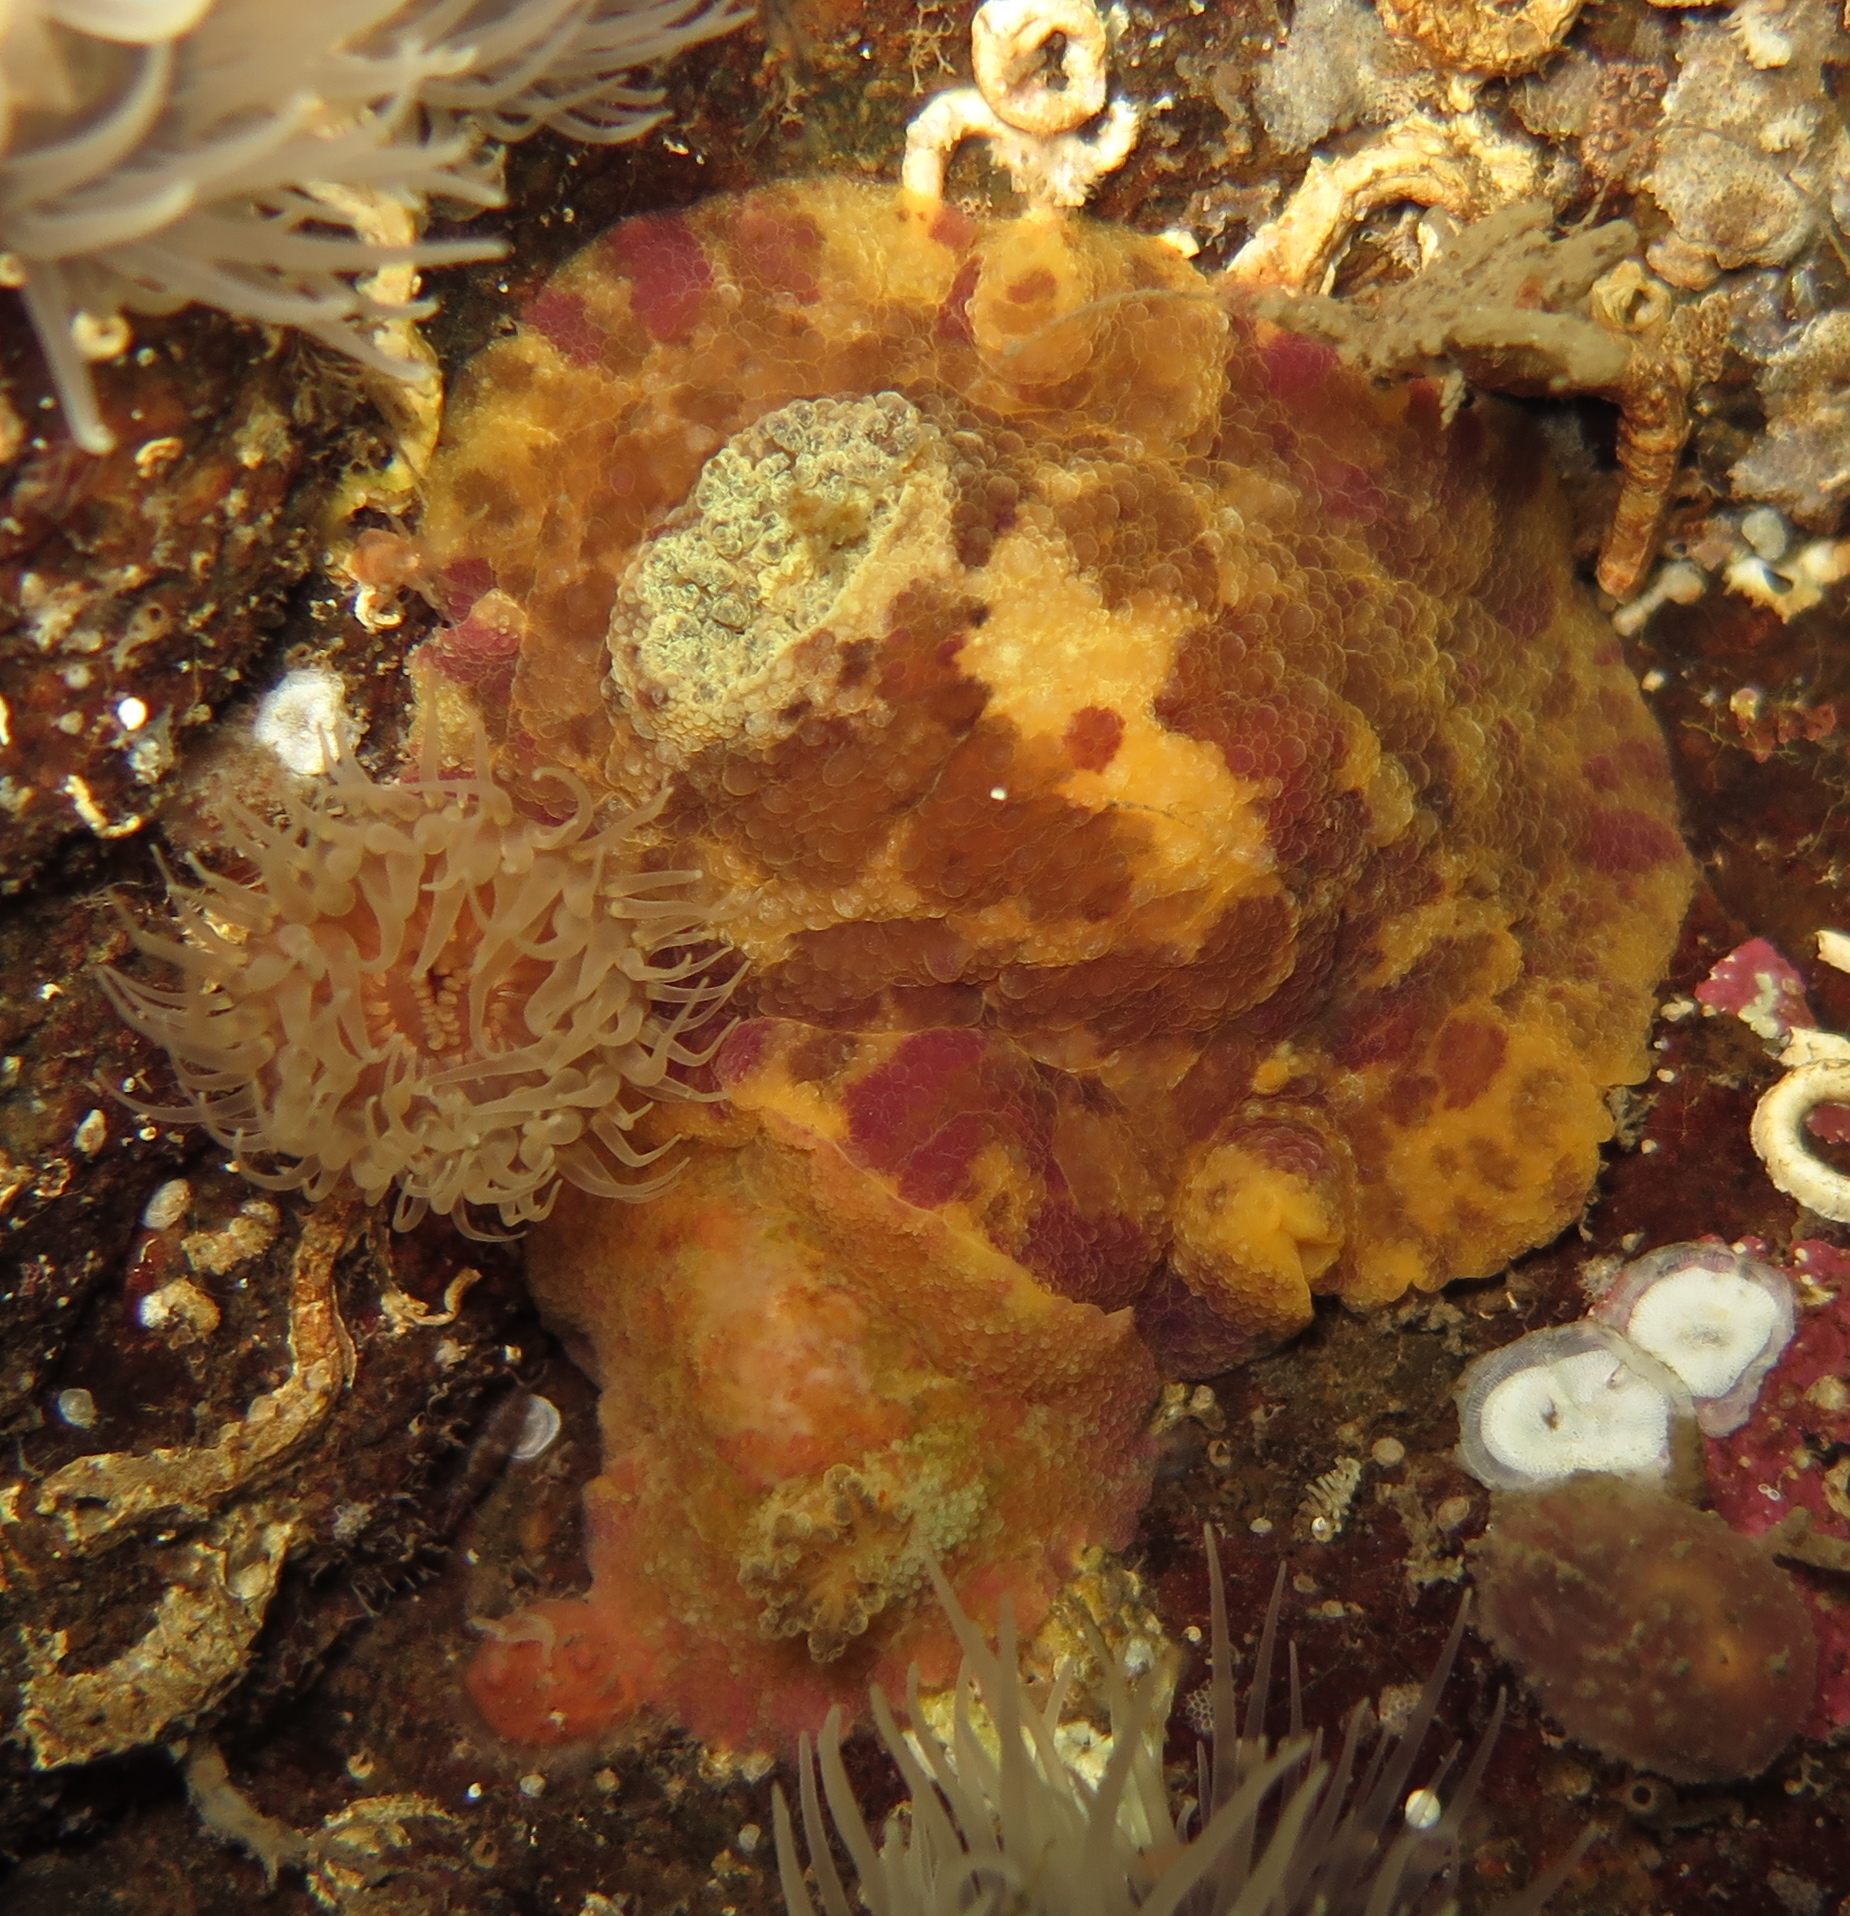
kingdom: Animalia
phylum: Mollusca
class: Gastropoda
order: Nudibranchia
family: Dorididae
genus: Doris
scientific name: Doris pseudoargus
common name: Sea lemon
